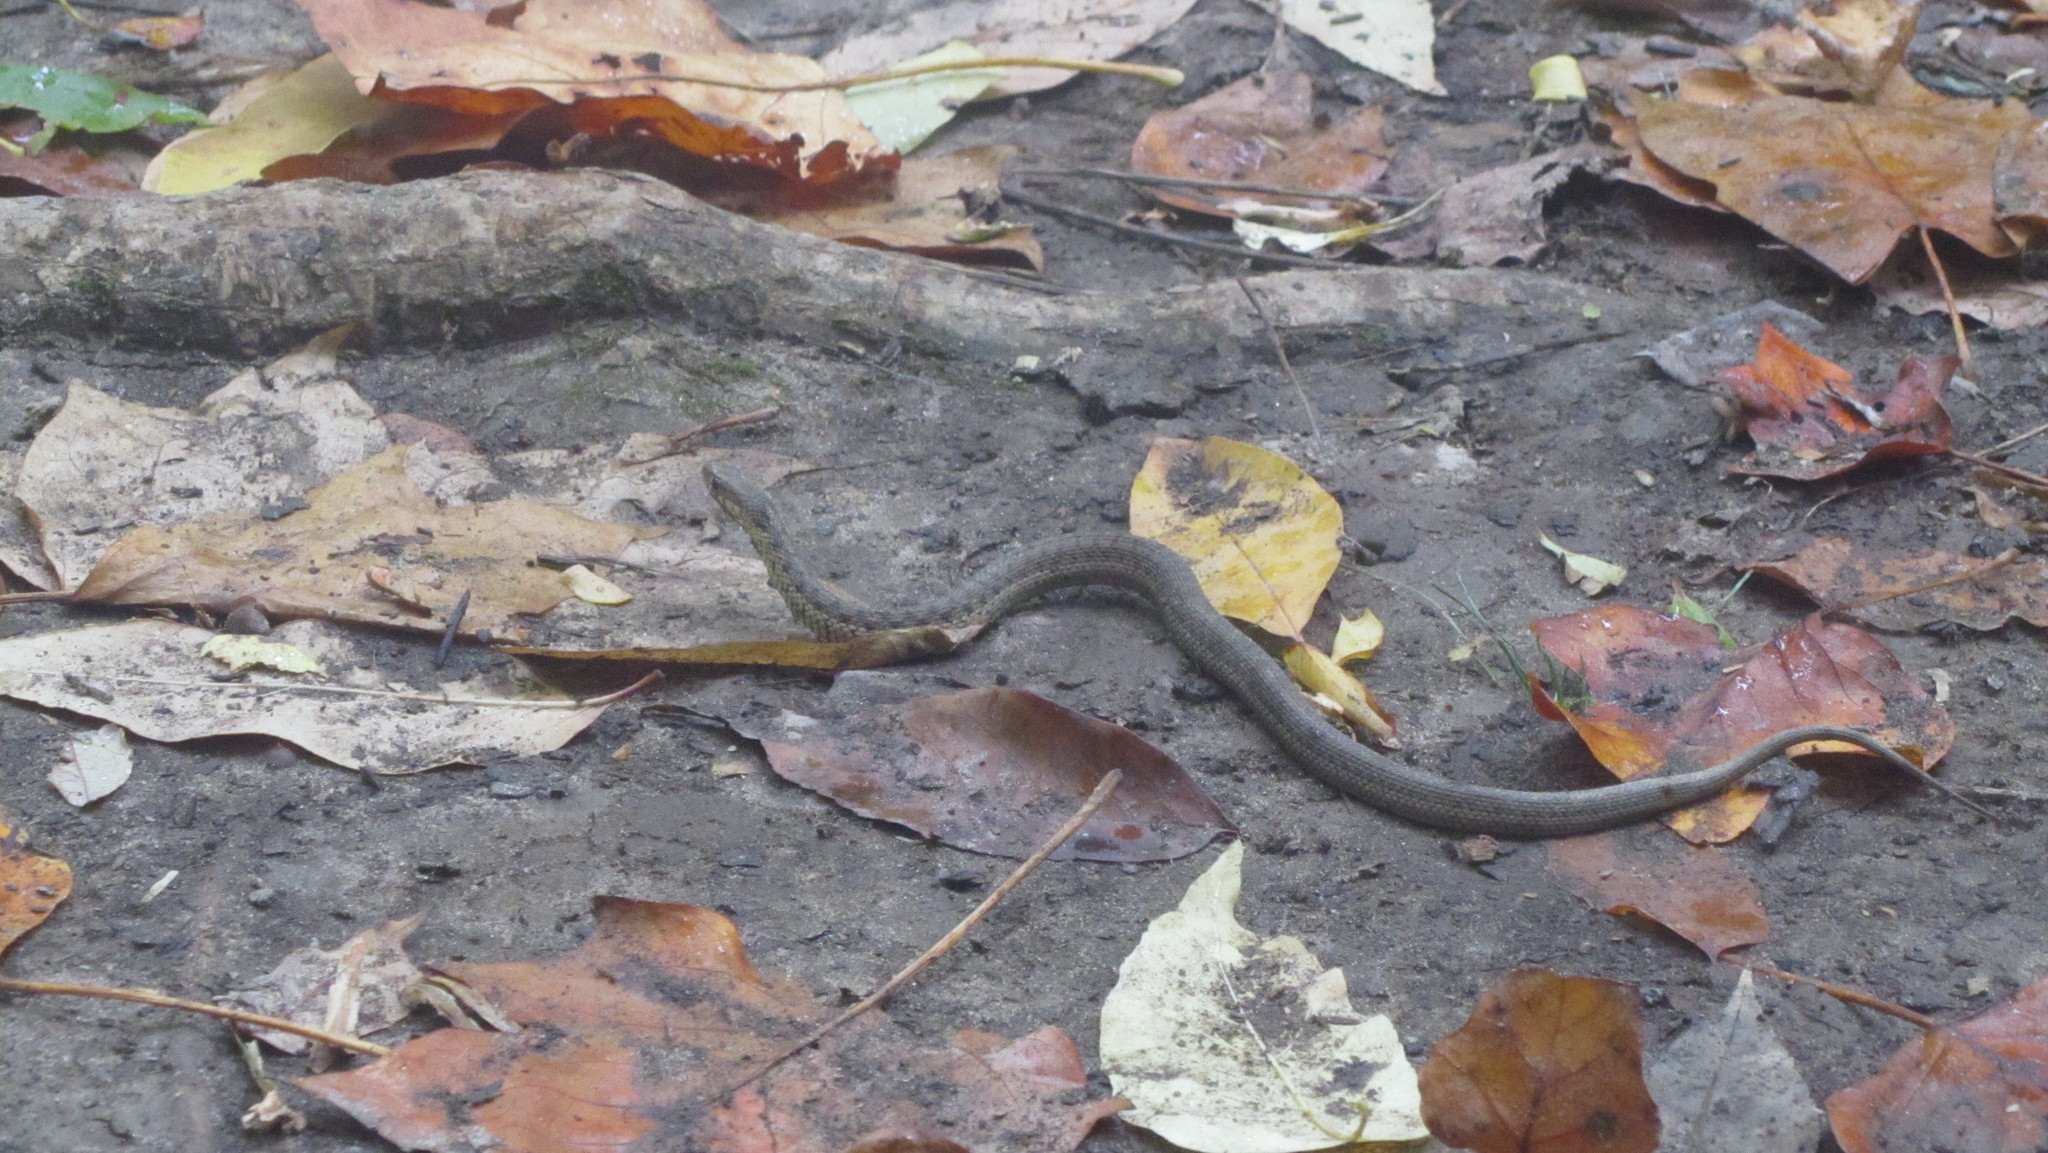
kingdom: Animalia
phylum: Chordata
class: Squamata
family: Colubridae
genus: Thamnophis
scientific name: Thamnophis sirtalis
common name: Common garter snake
